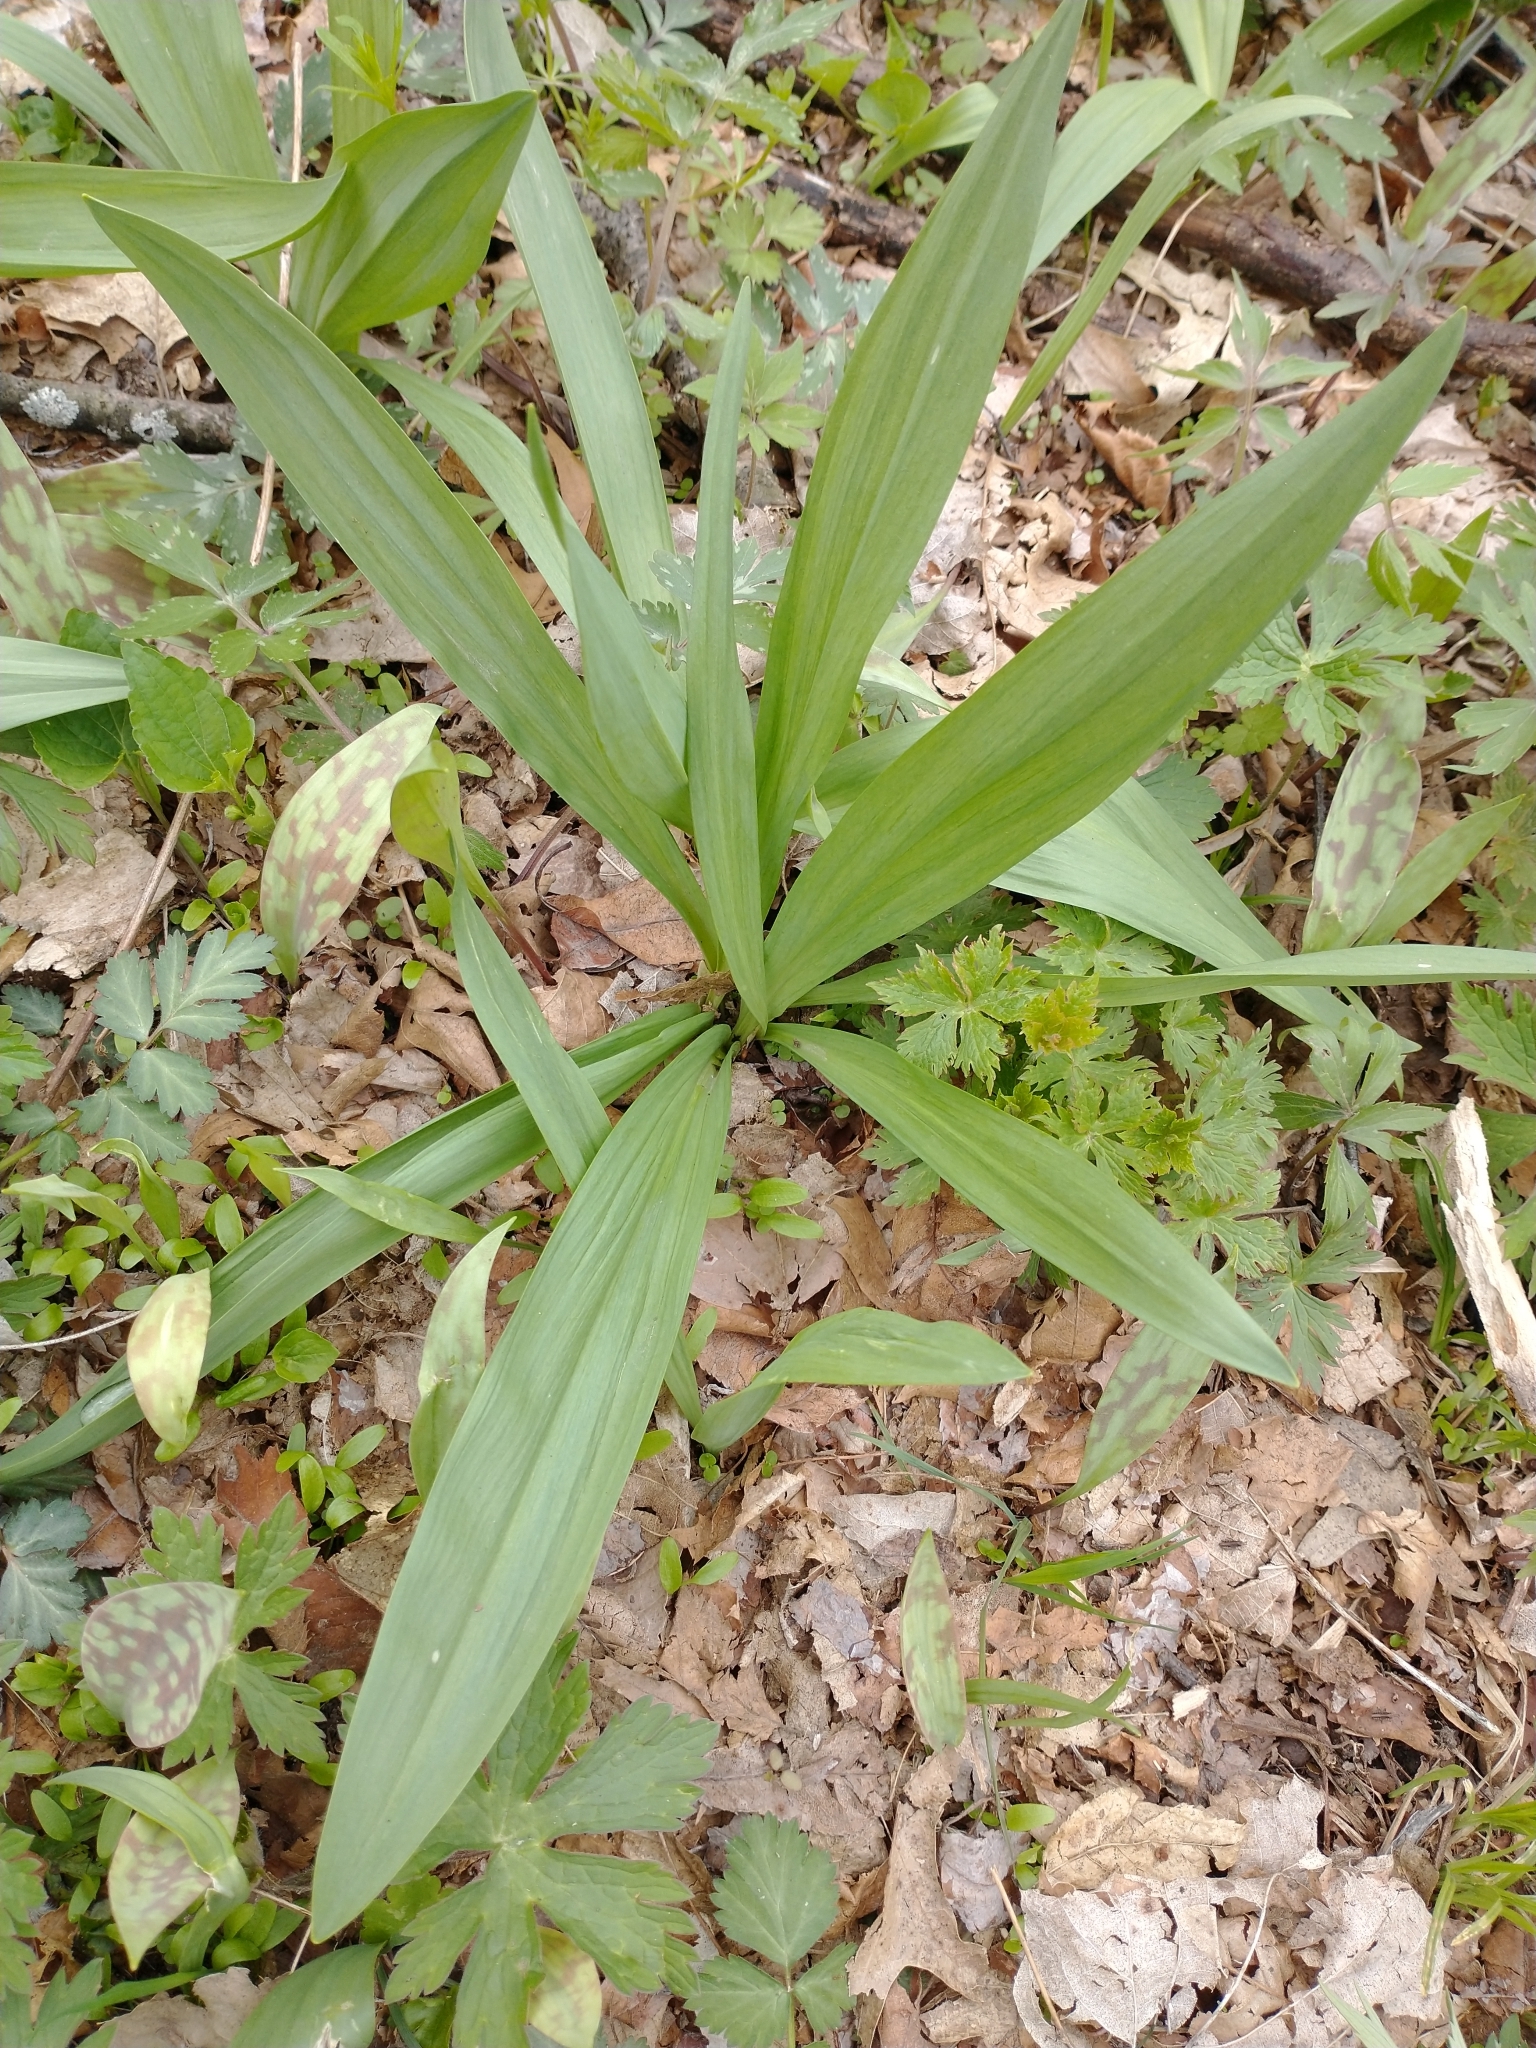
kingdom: Plantae
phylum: Tracheophyta
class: Liliopsida
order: Asparagales
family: Amaryllidaceae
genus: Allium
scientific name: Allium tricoccum
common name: Ramp
